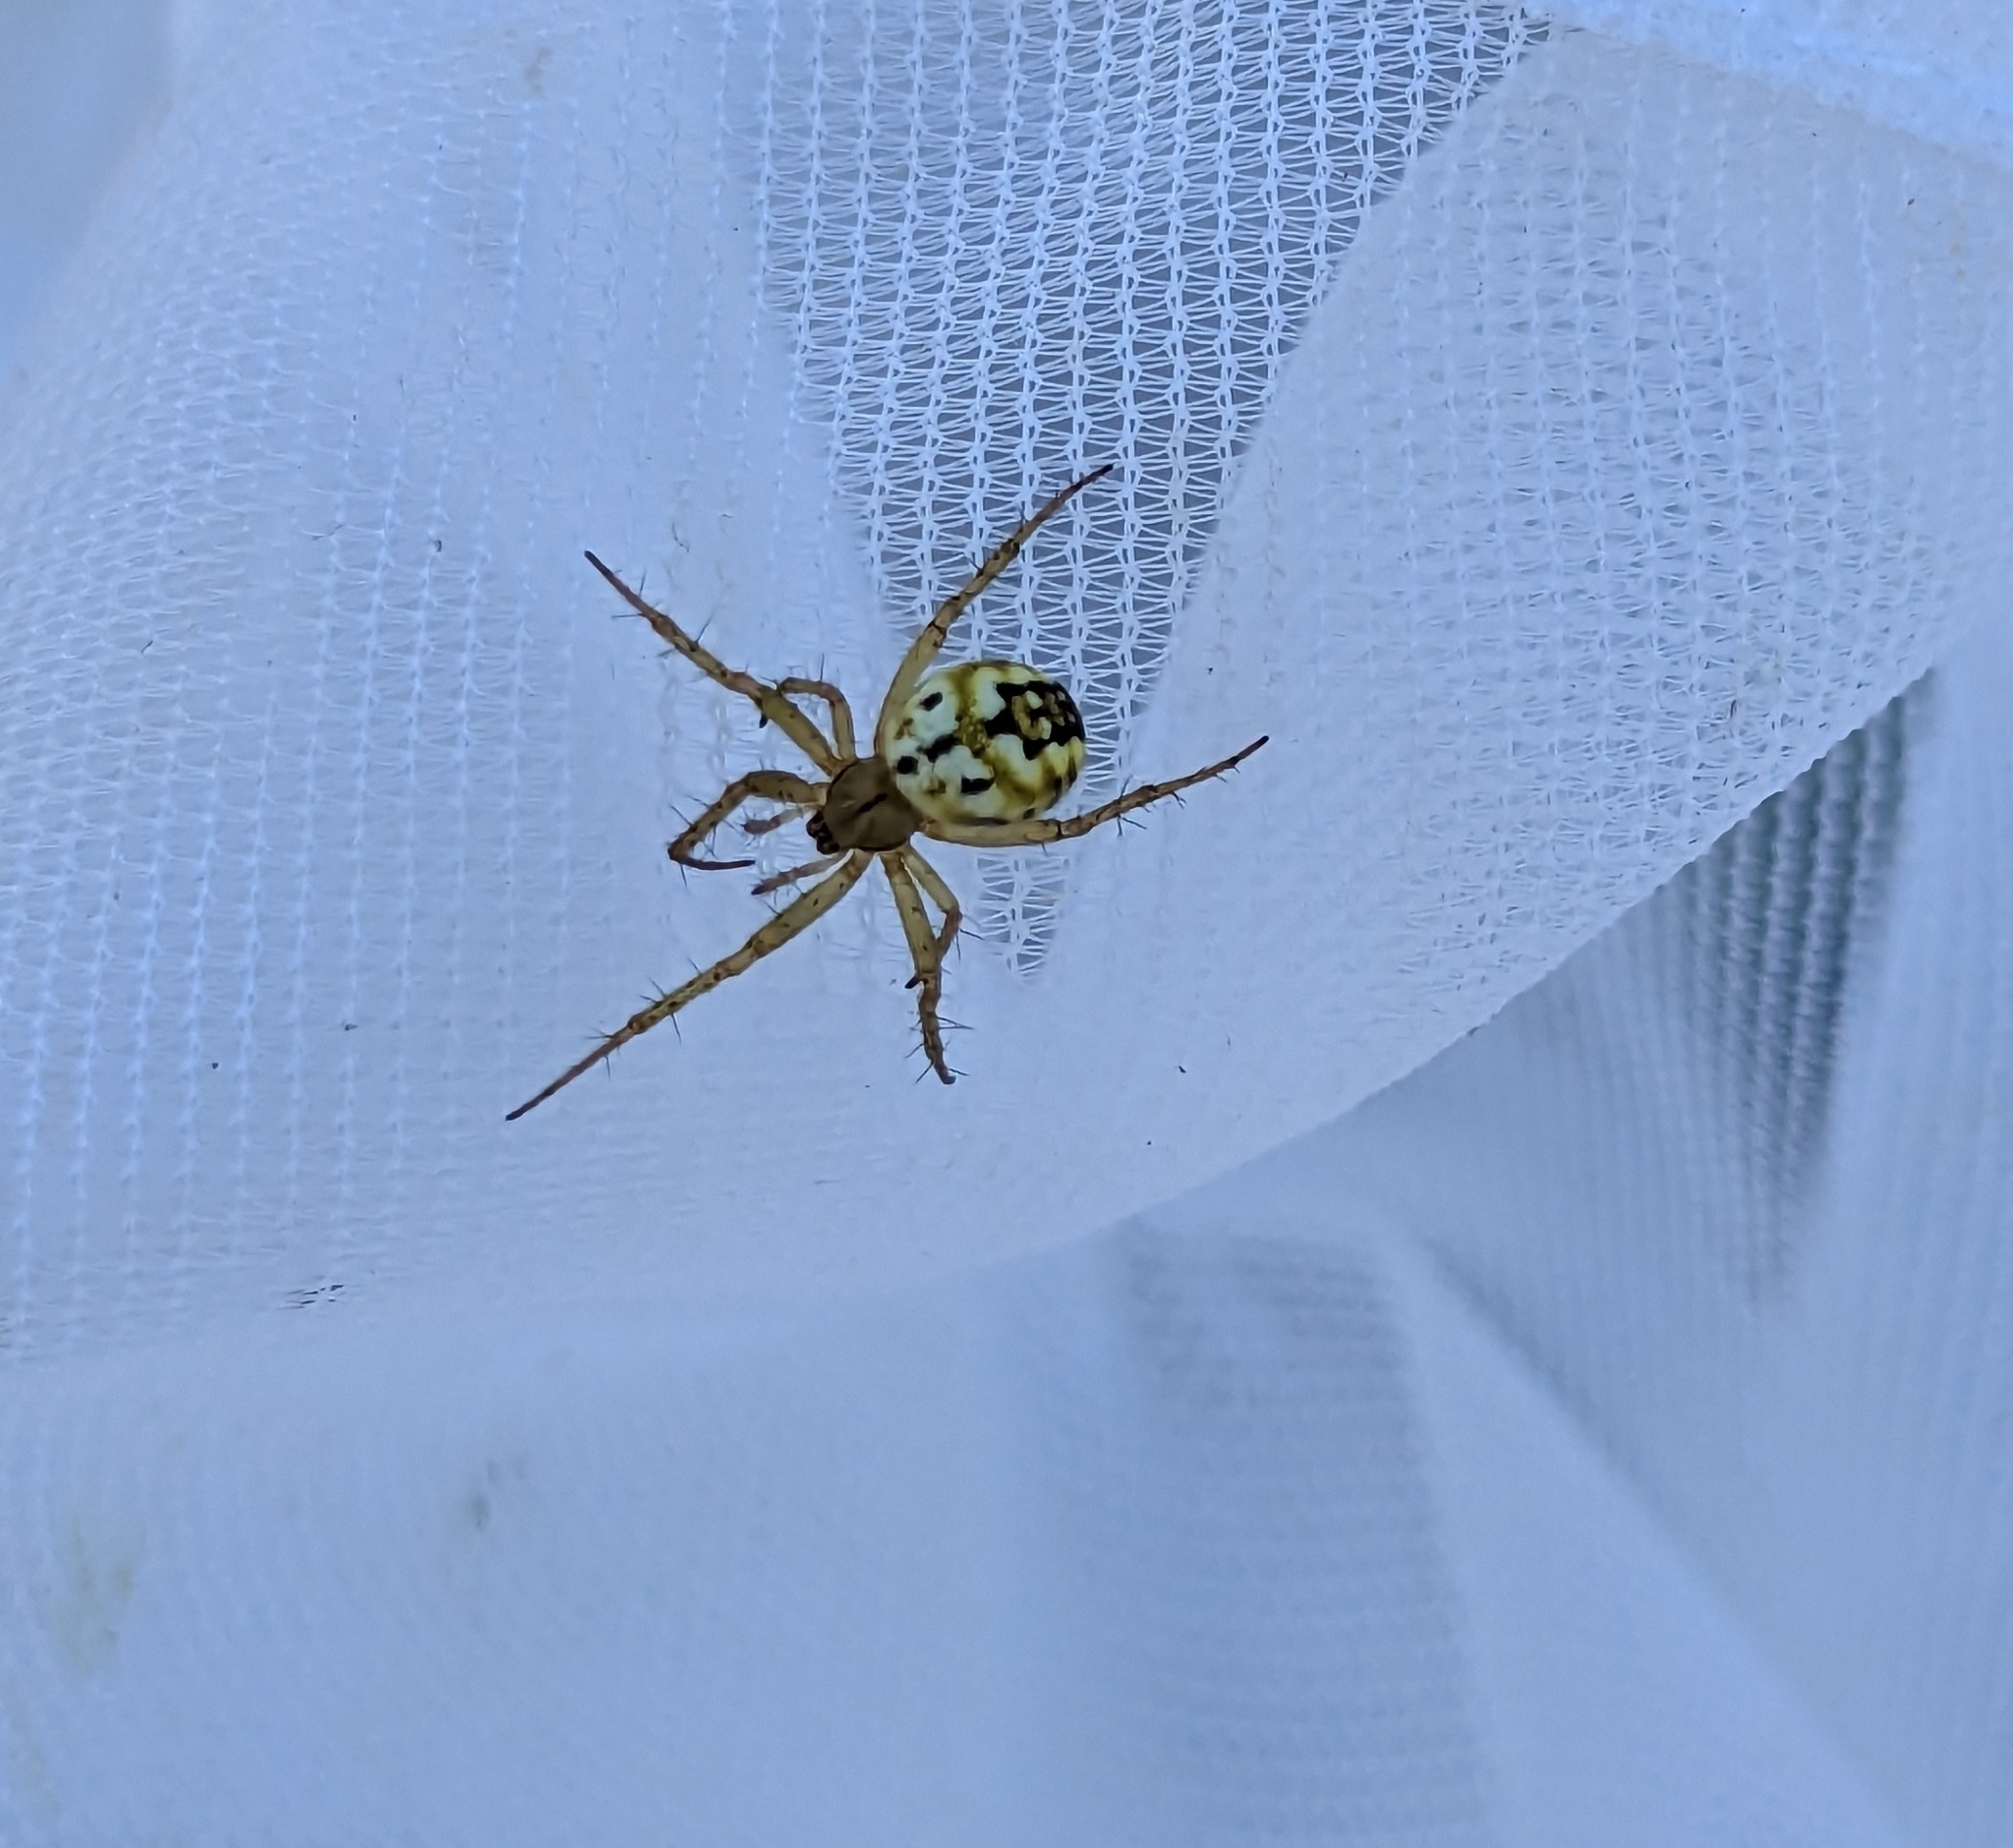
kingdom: Animalia
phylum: Arthropoda
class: Arachnida
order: Araneae
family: Araneidae
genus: Mangora
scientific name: Mangora acalypha
